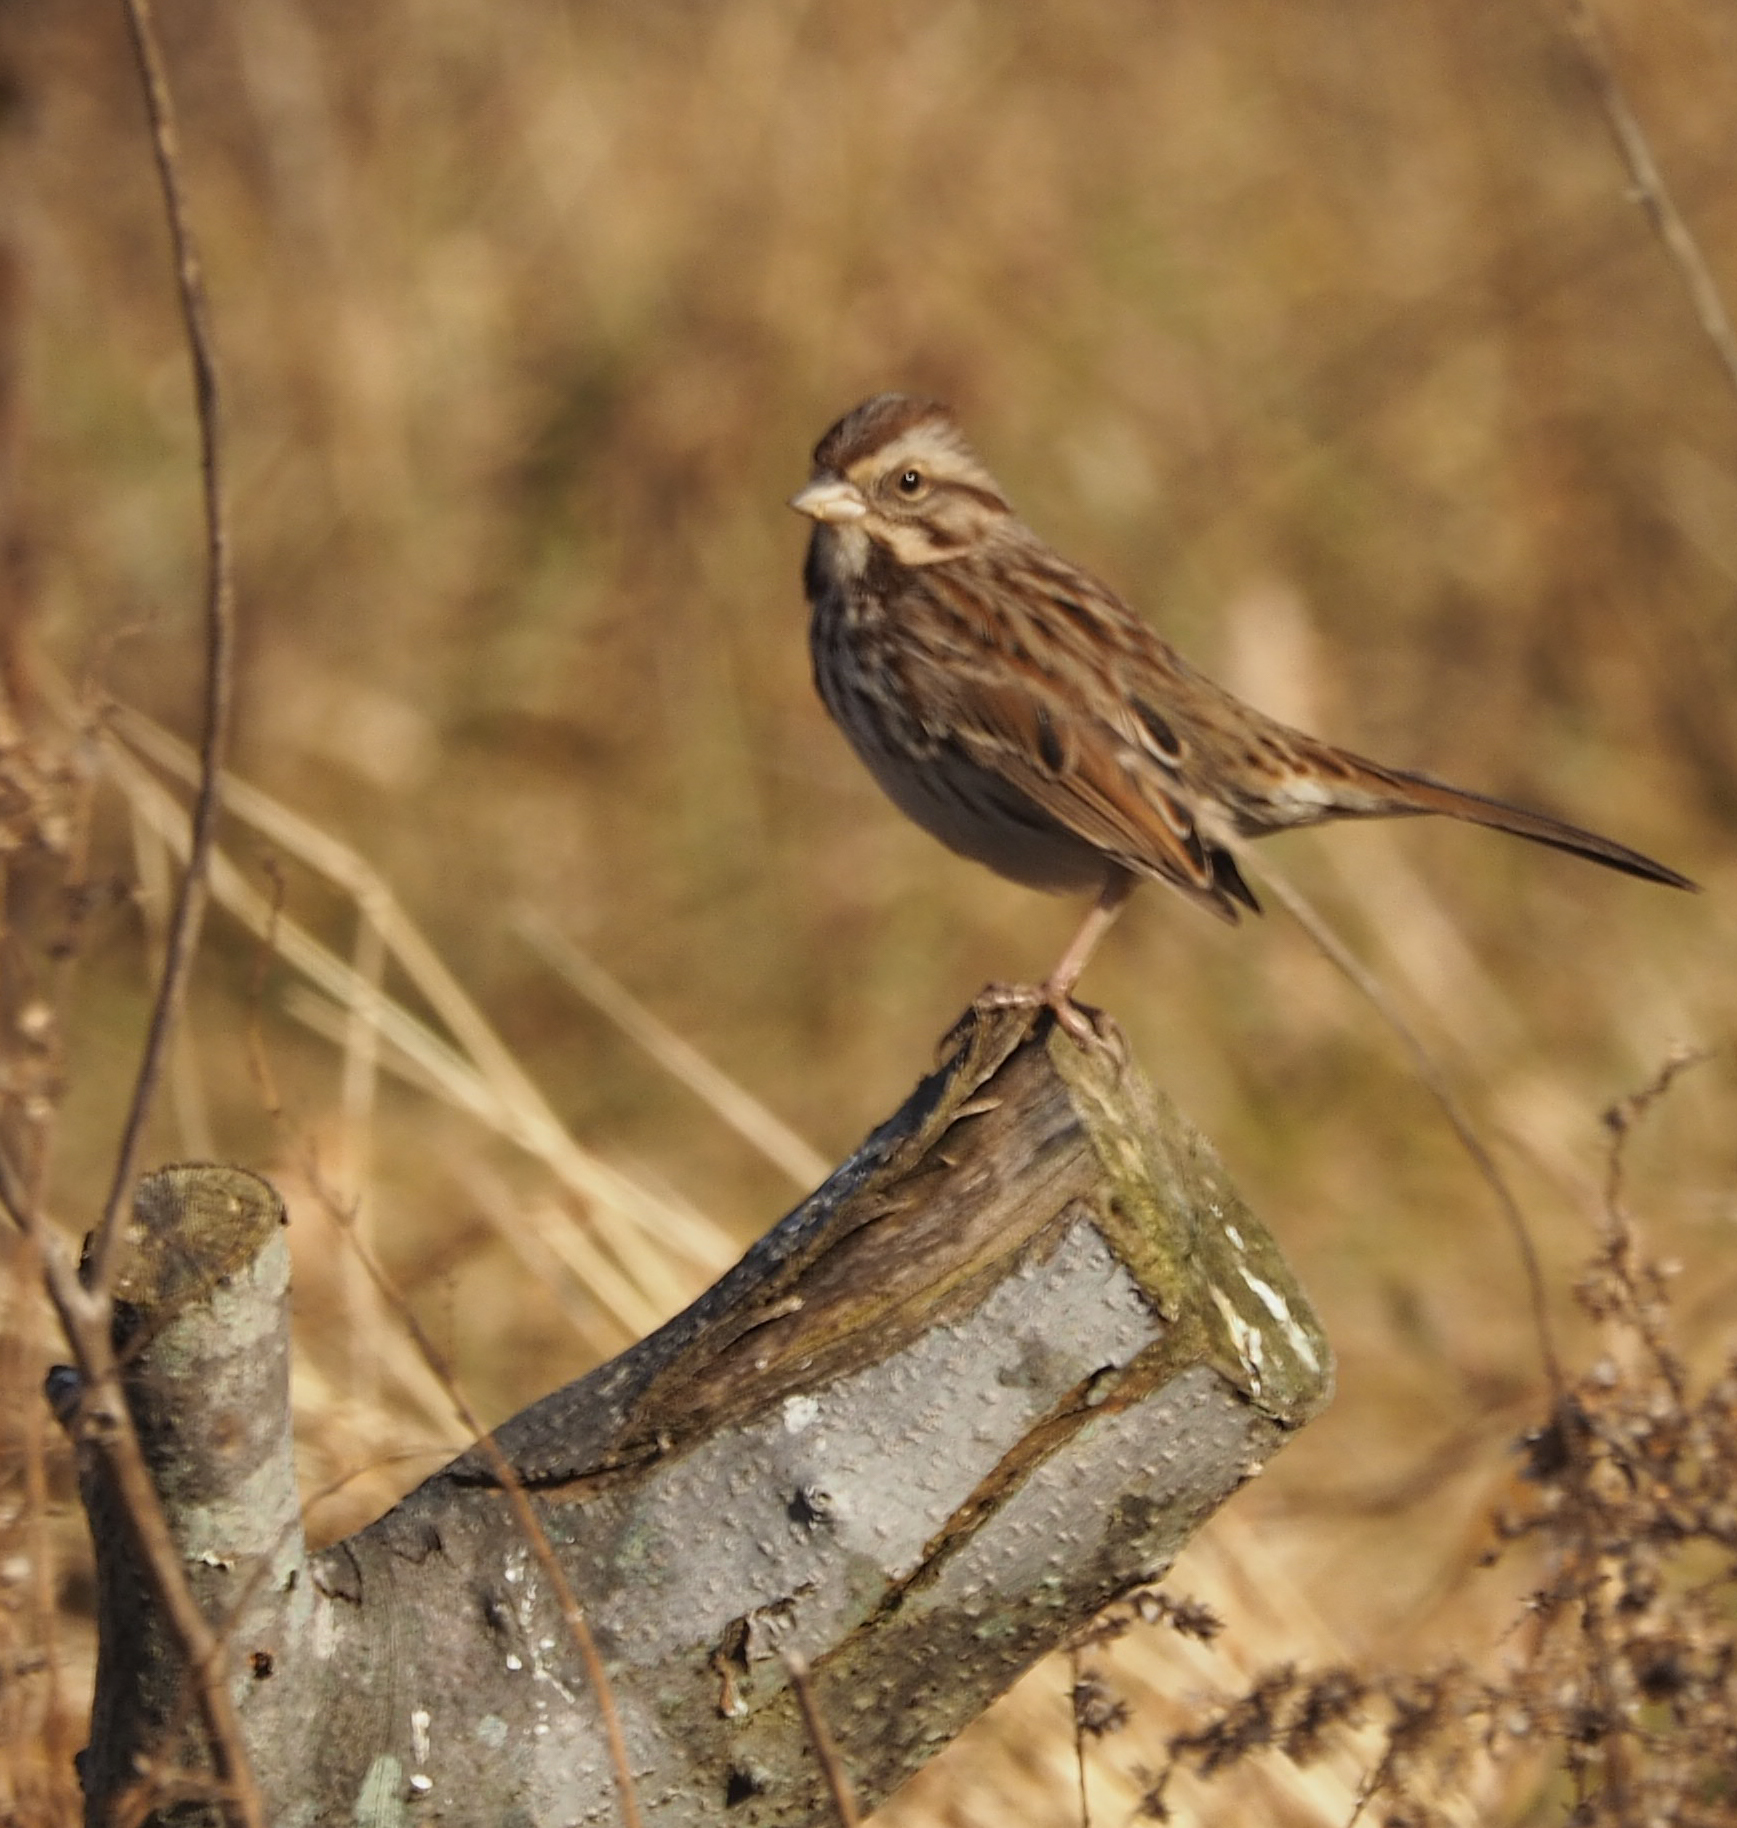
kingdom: Animalia
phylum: Chordata
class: Aves
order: Passeriformes
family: Passerellidae
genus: Melospiza
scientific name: Melospiza melodia
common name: Song sparrow
